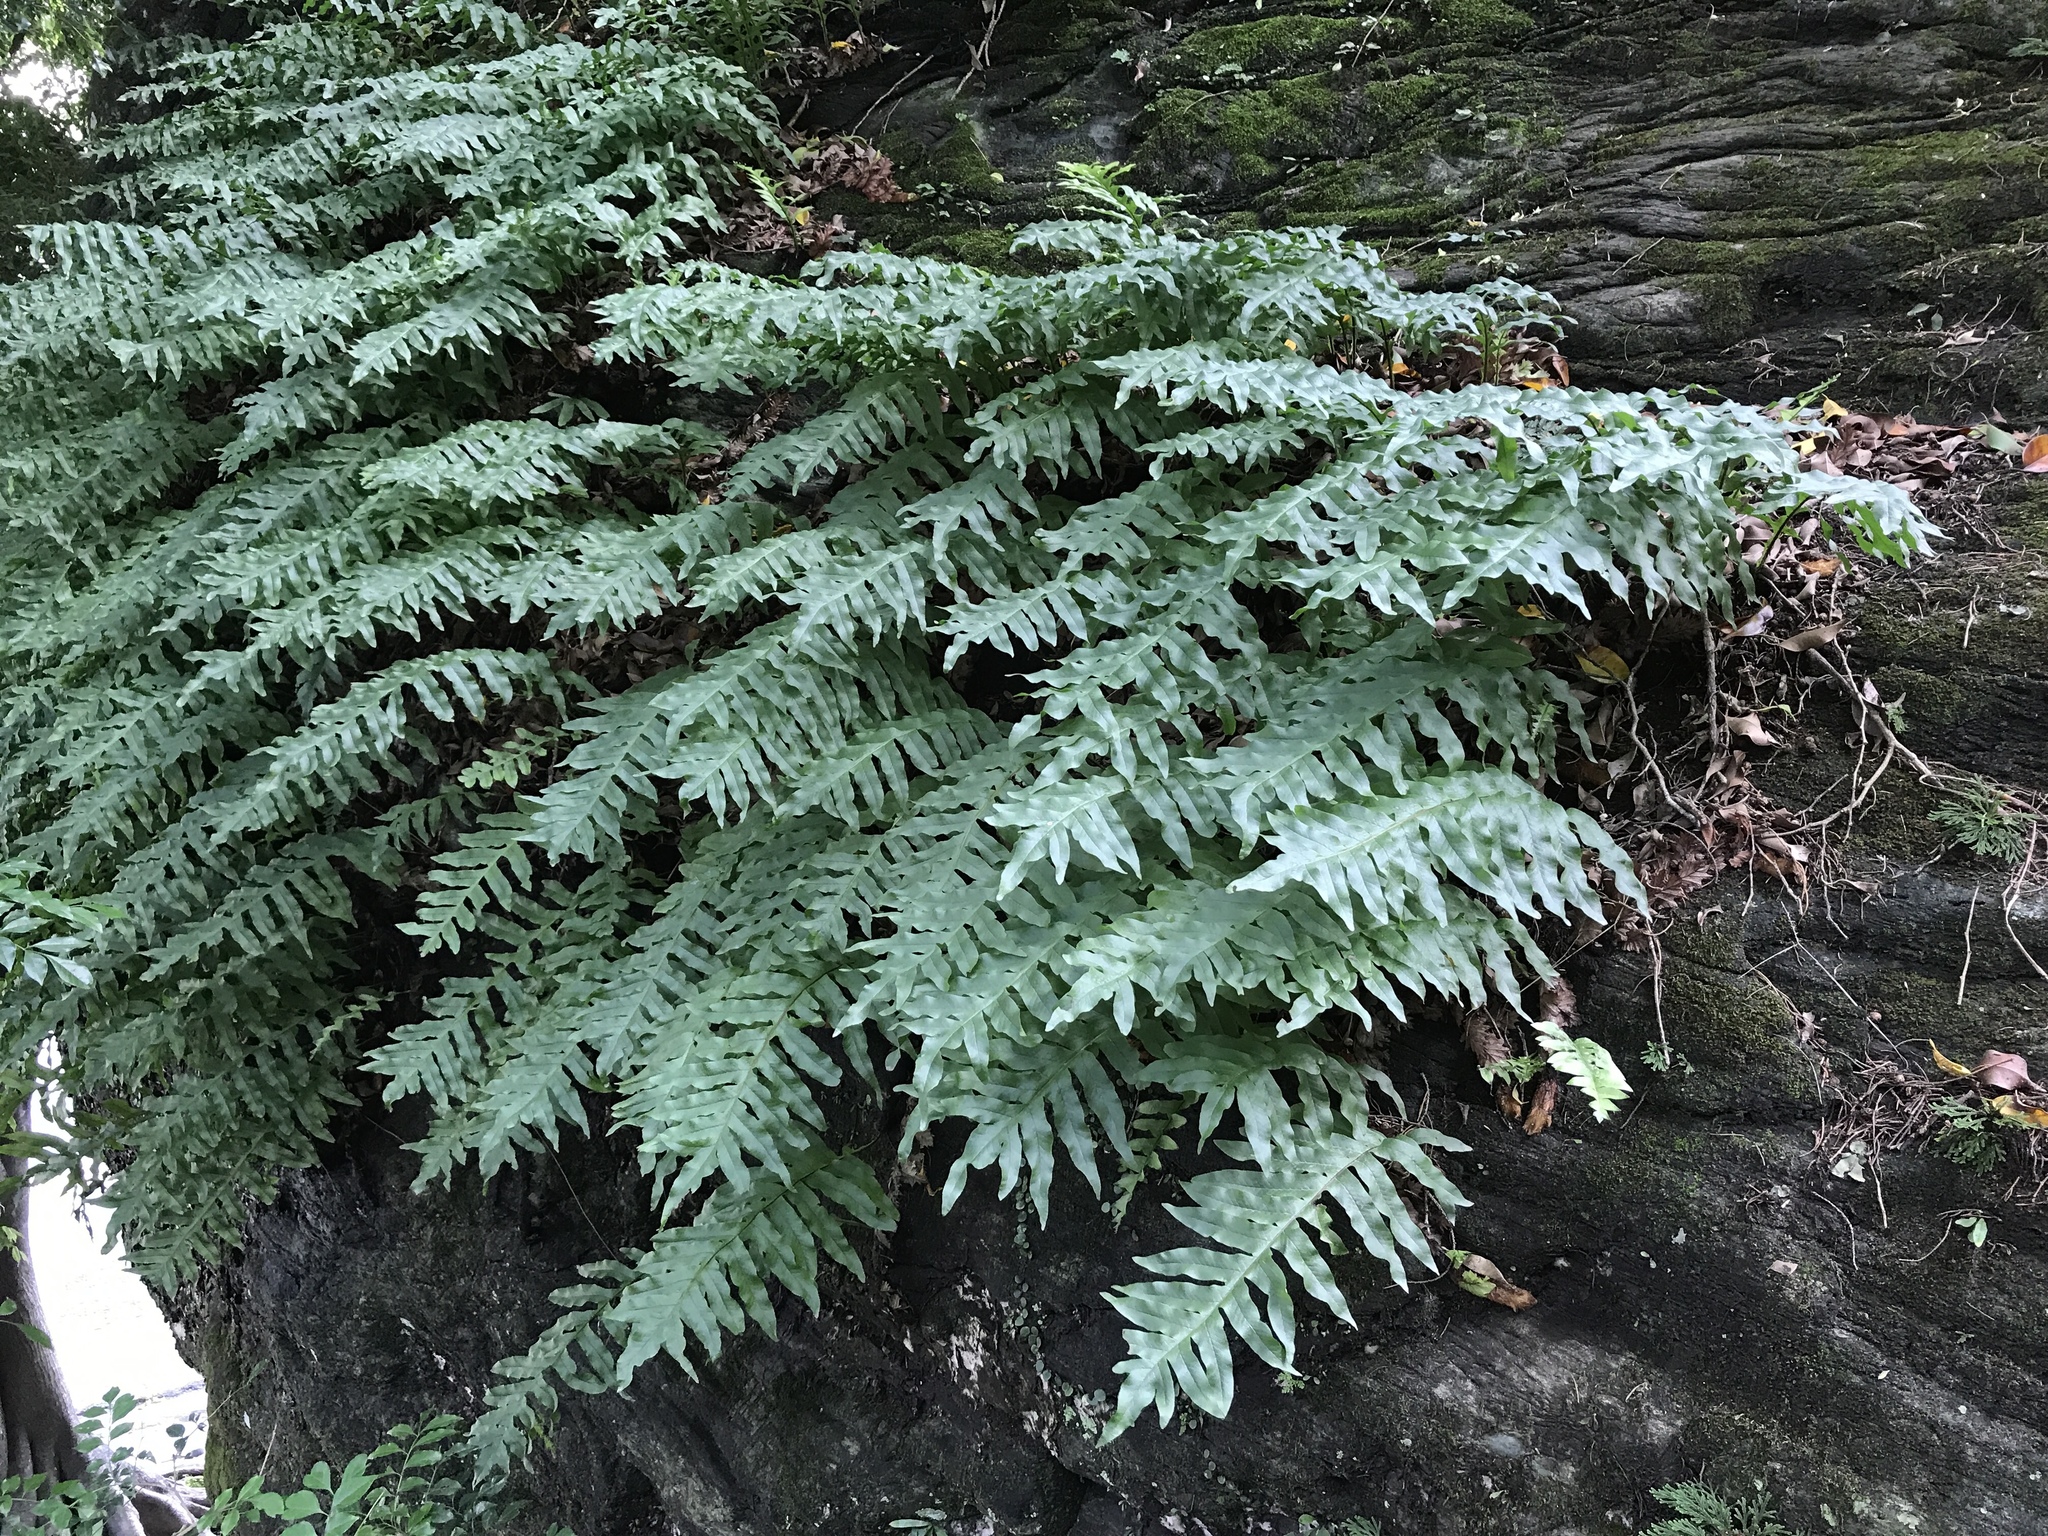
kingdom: Plantae
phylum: Tracheophyta
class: Polypodiopsida
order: Polypodiales
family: Polypodiaceae
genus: Drynaria
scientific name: Drynaria roosii
